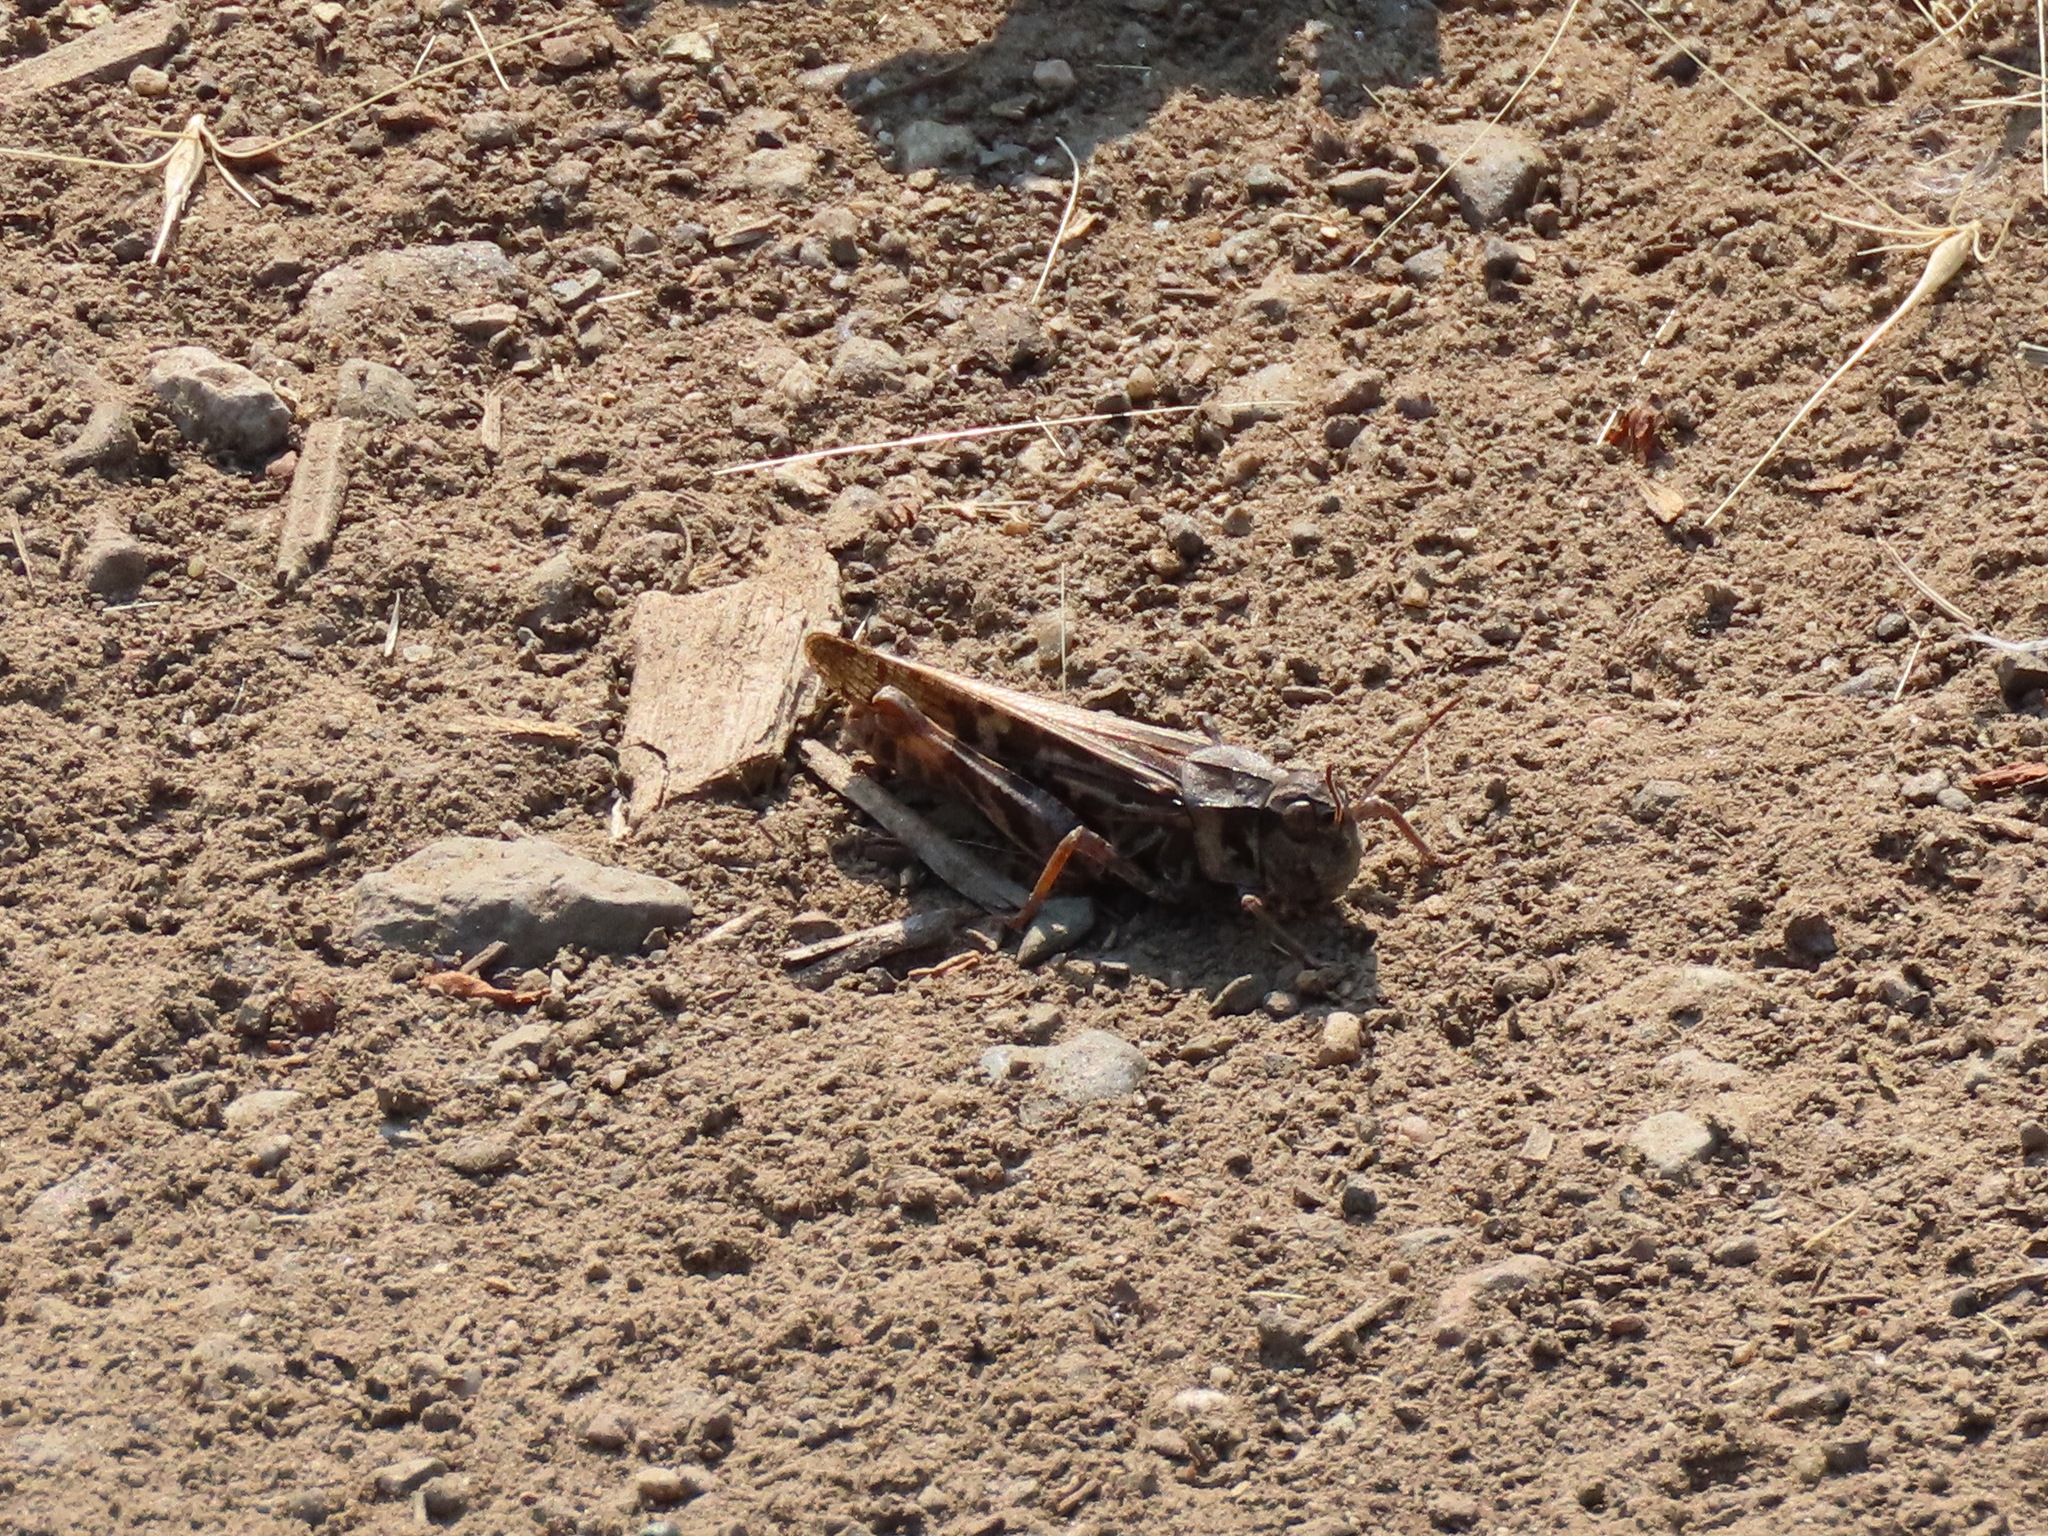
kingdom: Animalia
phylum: Arthropoda
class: Insecta
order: Orthoptera
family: Acrididae
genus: Camnula
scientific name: Camnula pellucida
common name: Clear-winged grasshopper
